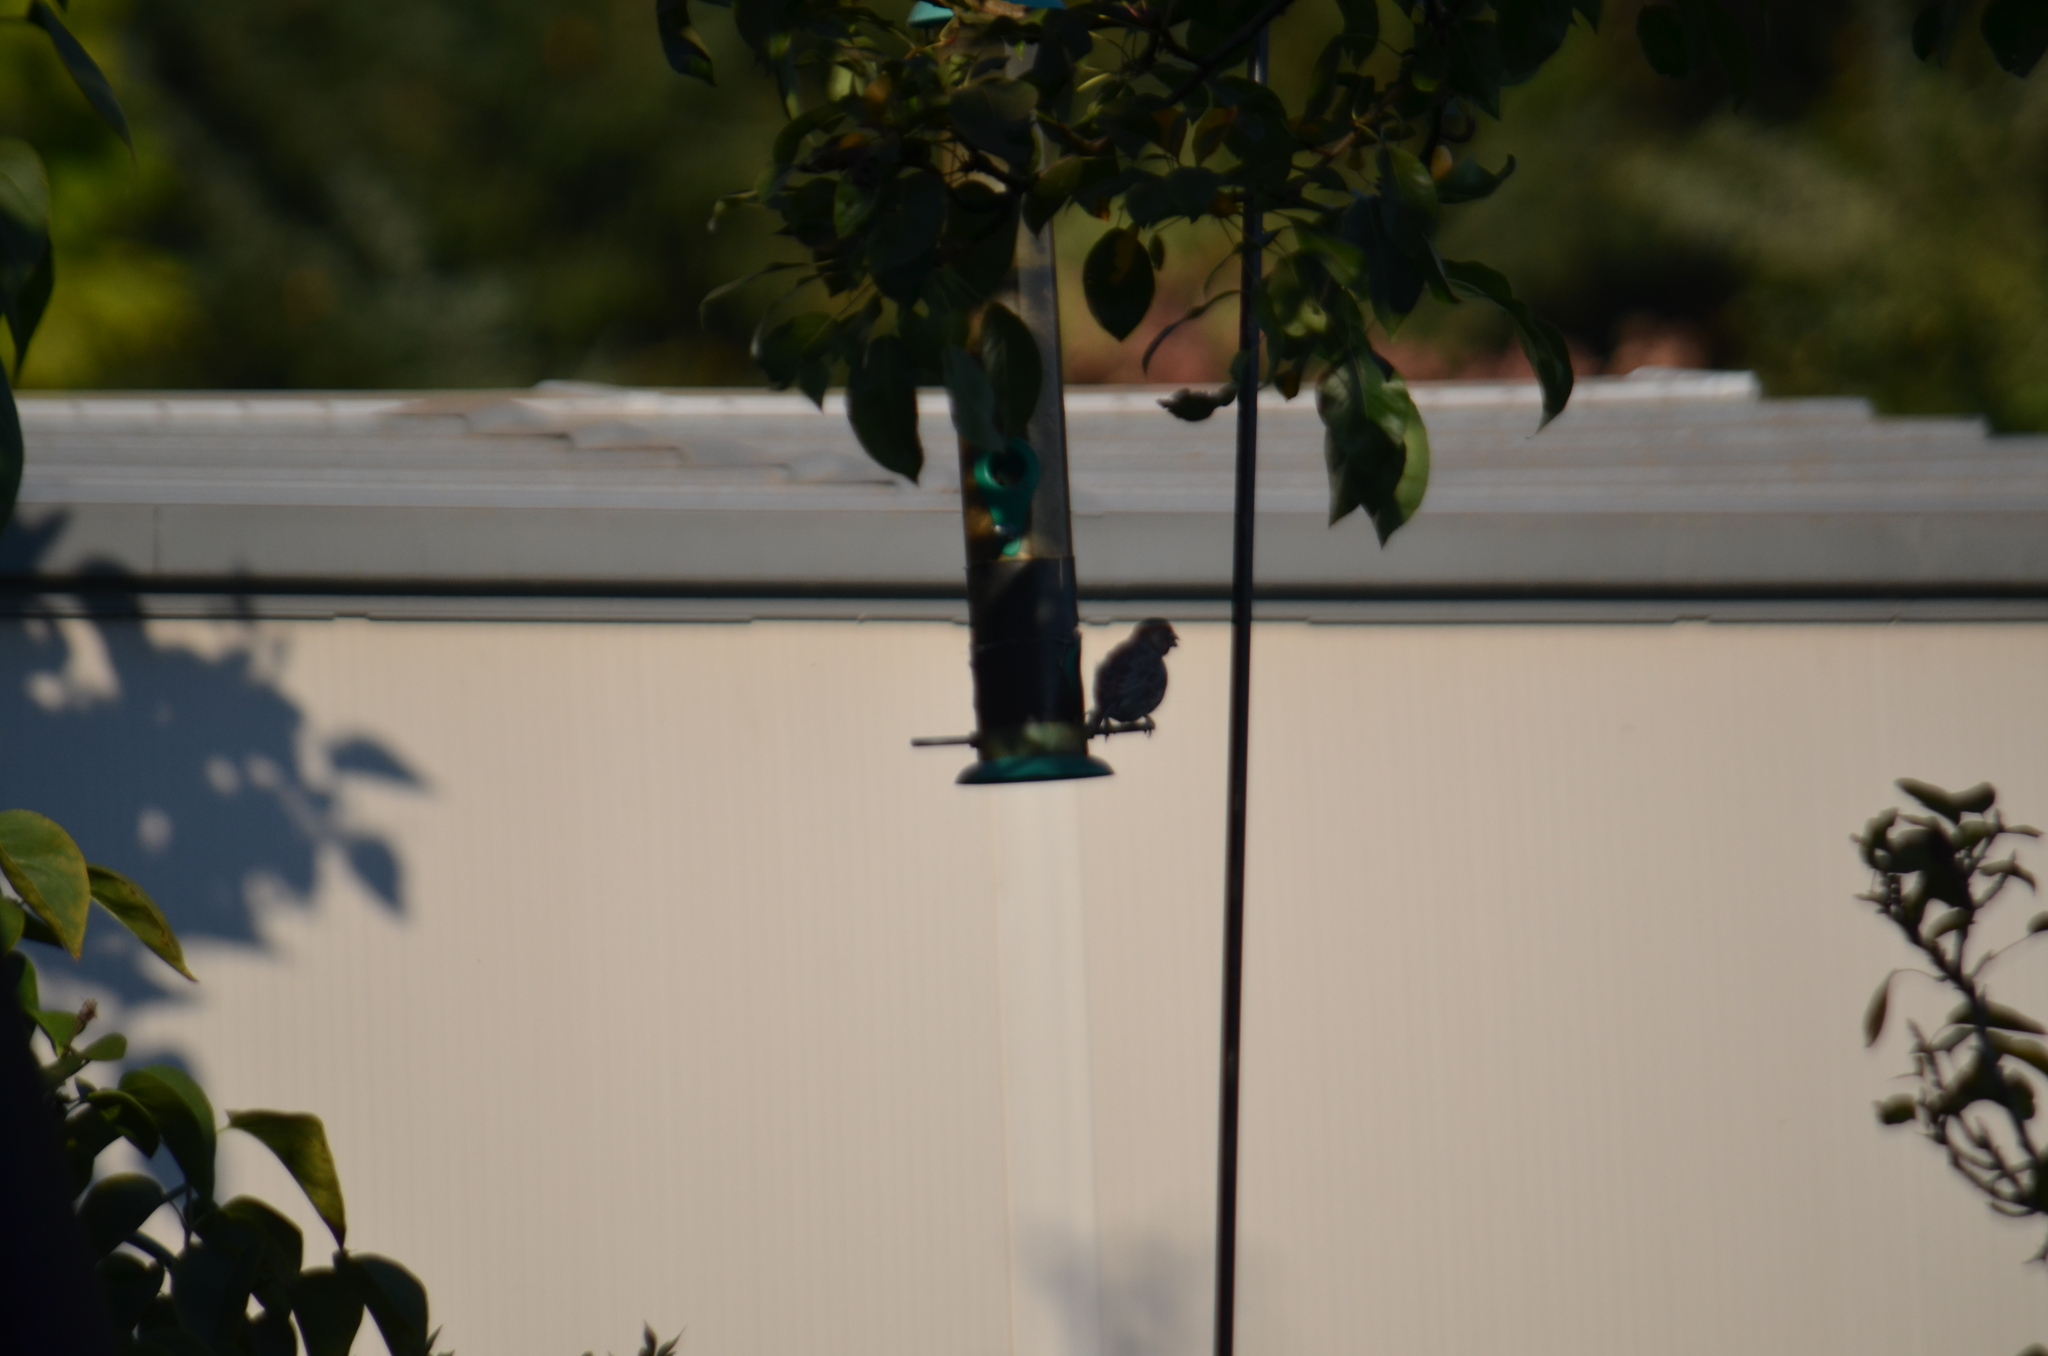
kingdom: Animalia
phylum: Chordata
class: Aves
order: Passeriformes
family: Fringillidae
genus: Haemorhous
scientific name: Haemorhous mexicanus
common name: House finch
